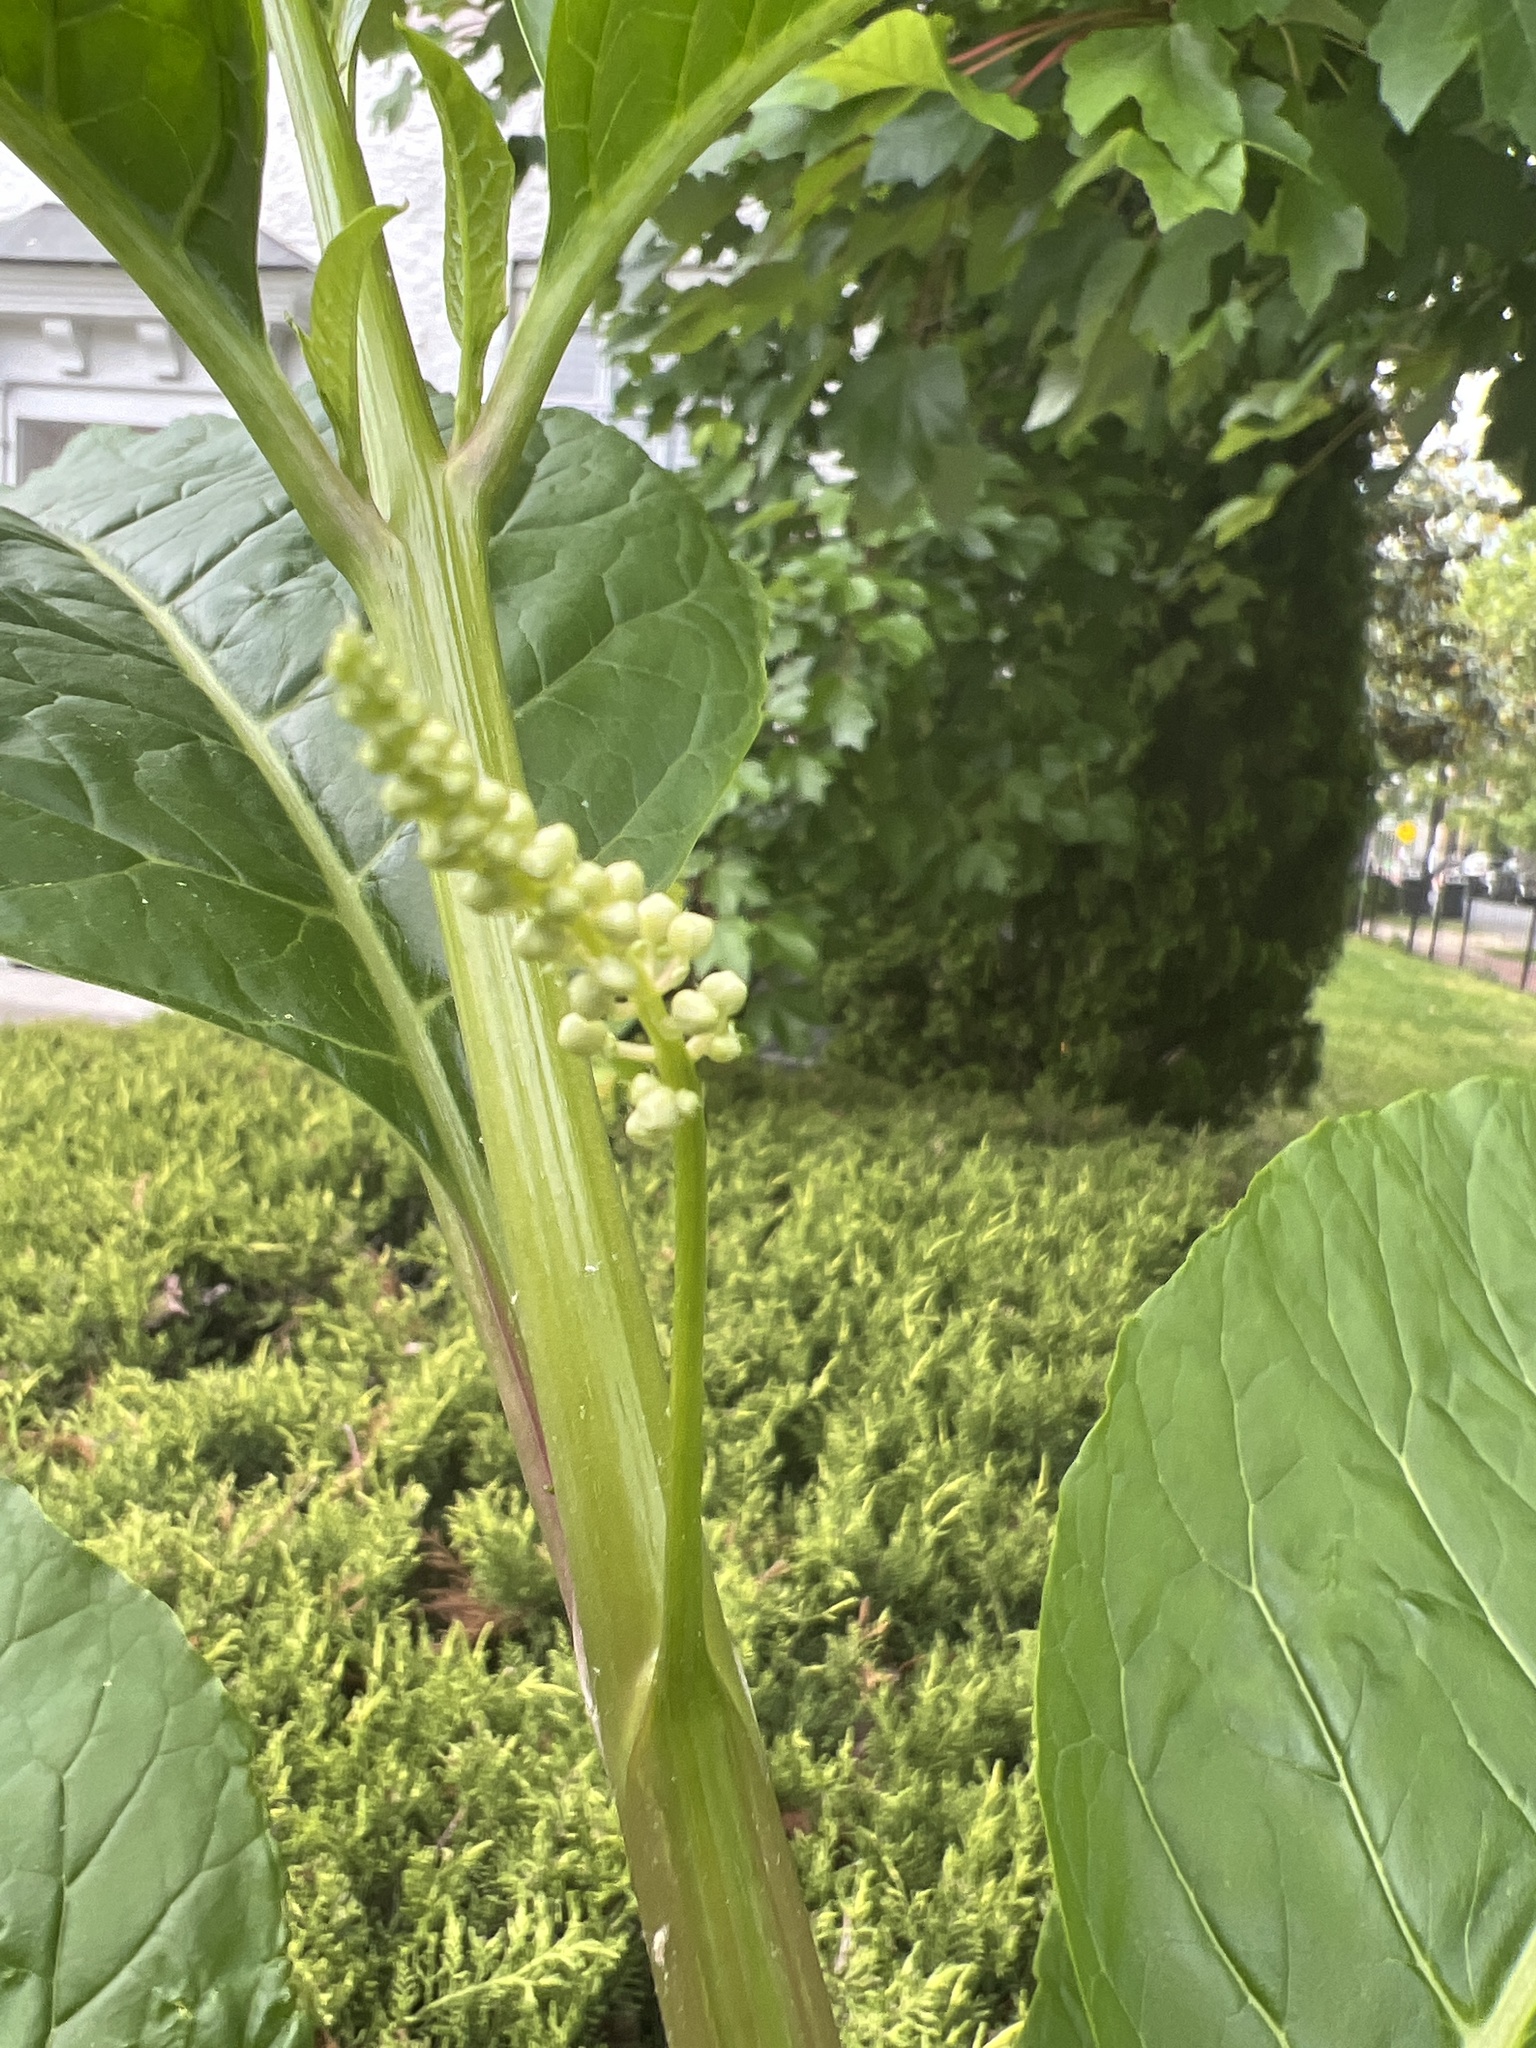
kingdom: Plantae
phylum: Tracheophyta
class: Magnoliopsida
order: Caryophyllales
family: Phytolaccaceae
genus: Phytolacca
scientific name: Phytolacca americana
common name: American pokeweed
